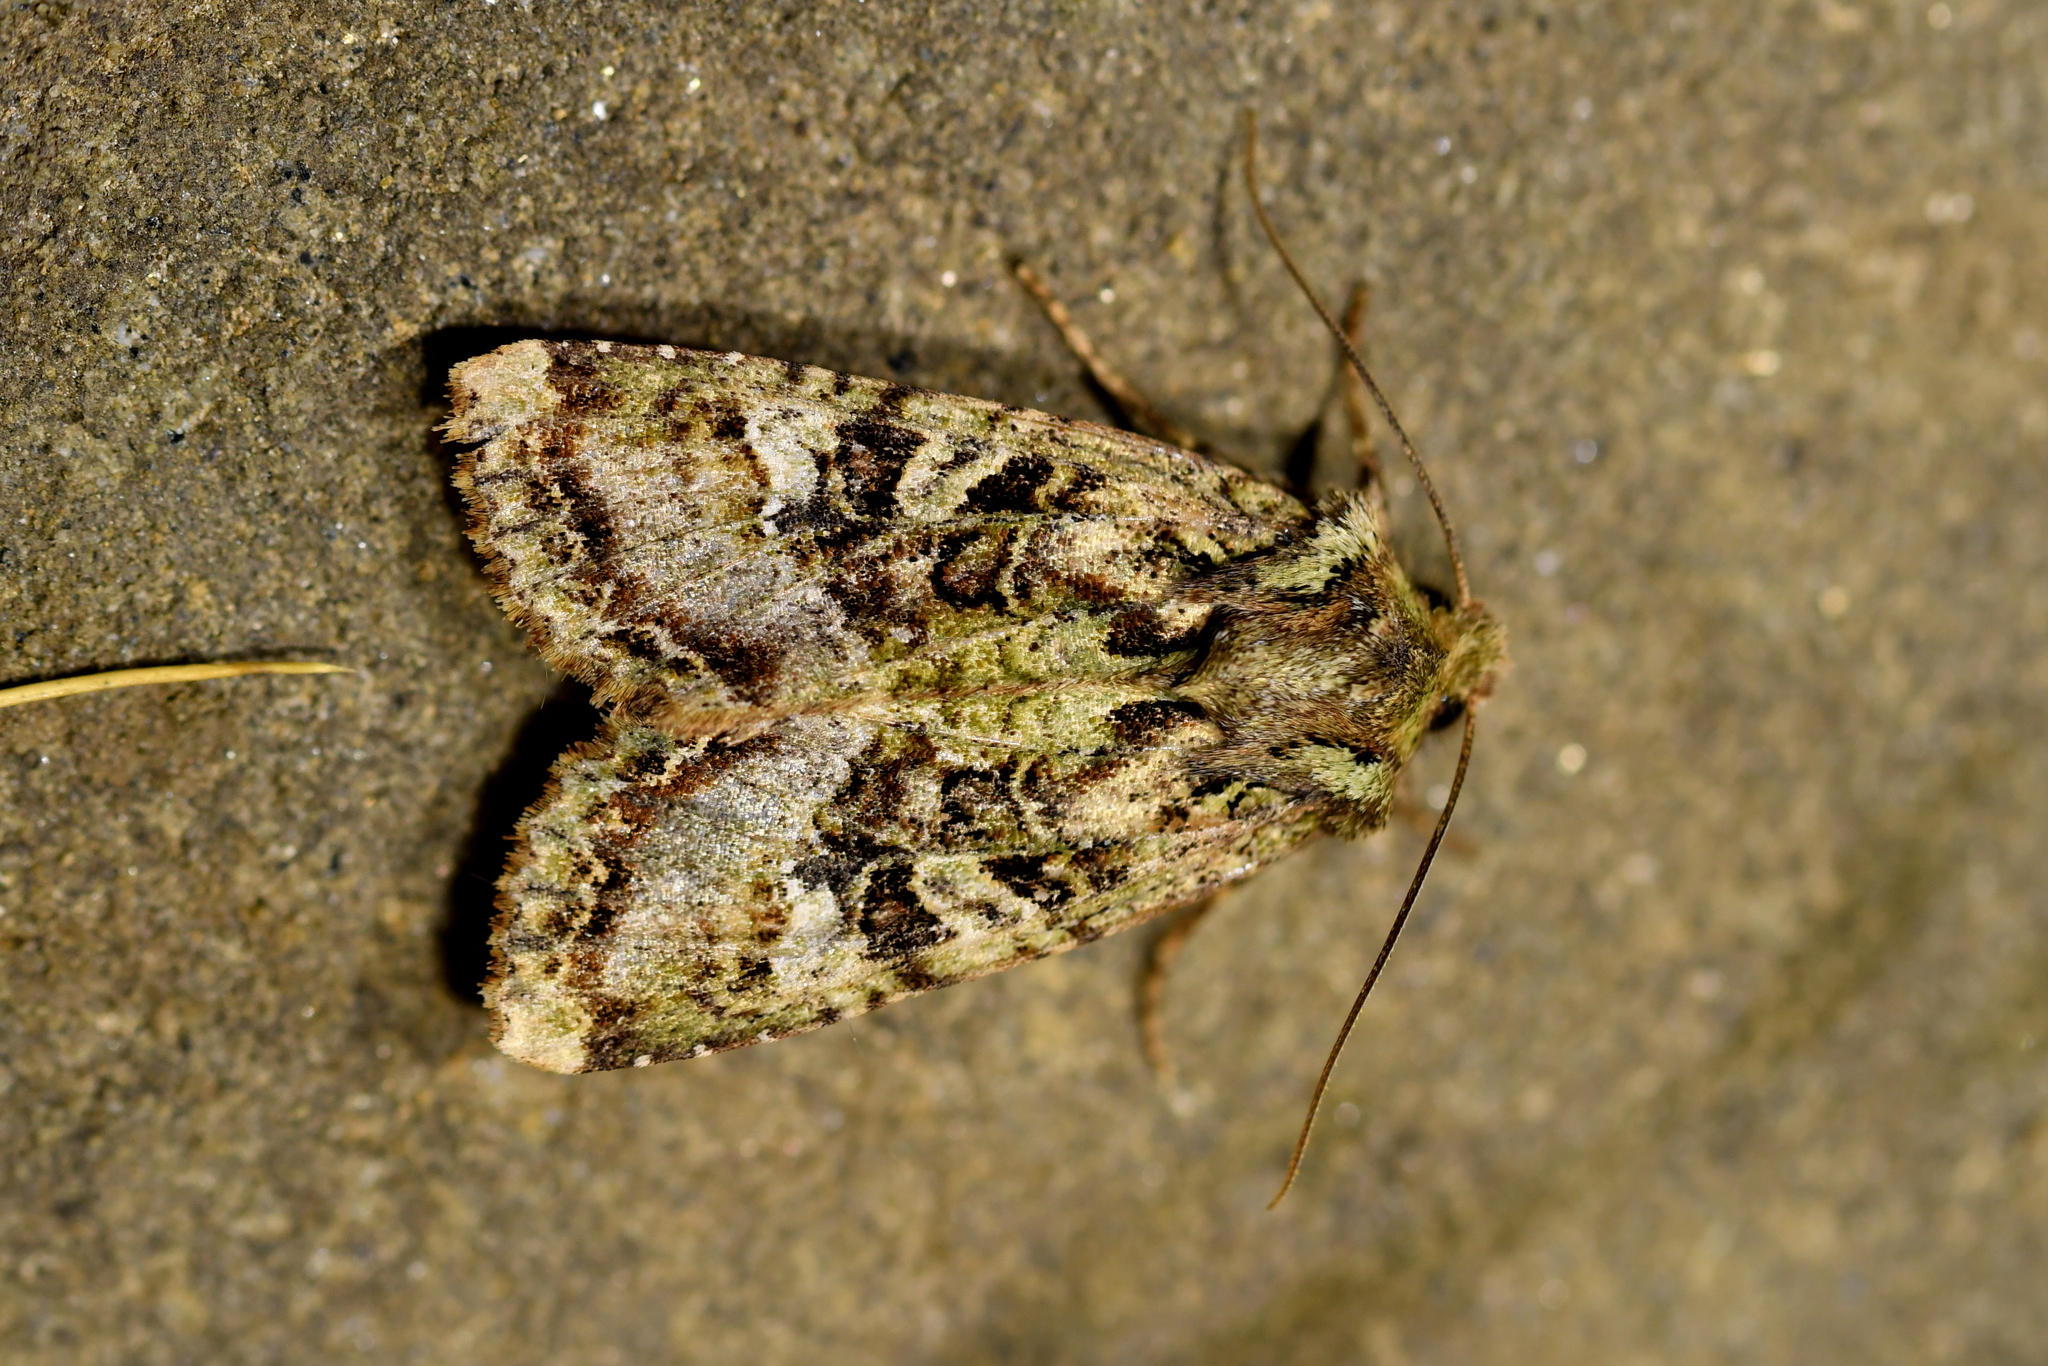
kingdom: Animalia
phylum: Arthropoda
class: Insecta
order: Lepidoptera
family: Noctuidae
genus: Meterana
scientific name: Meterana
